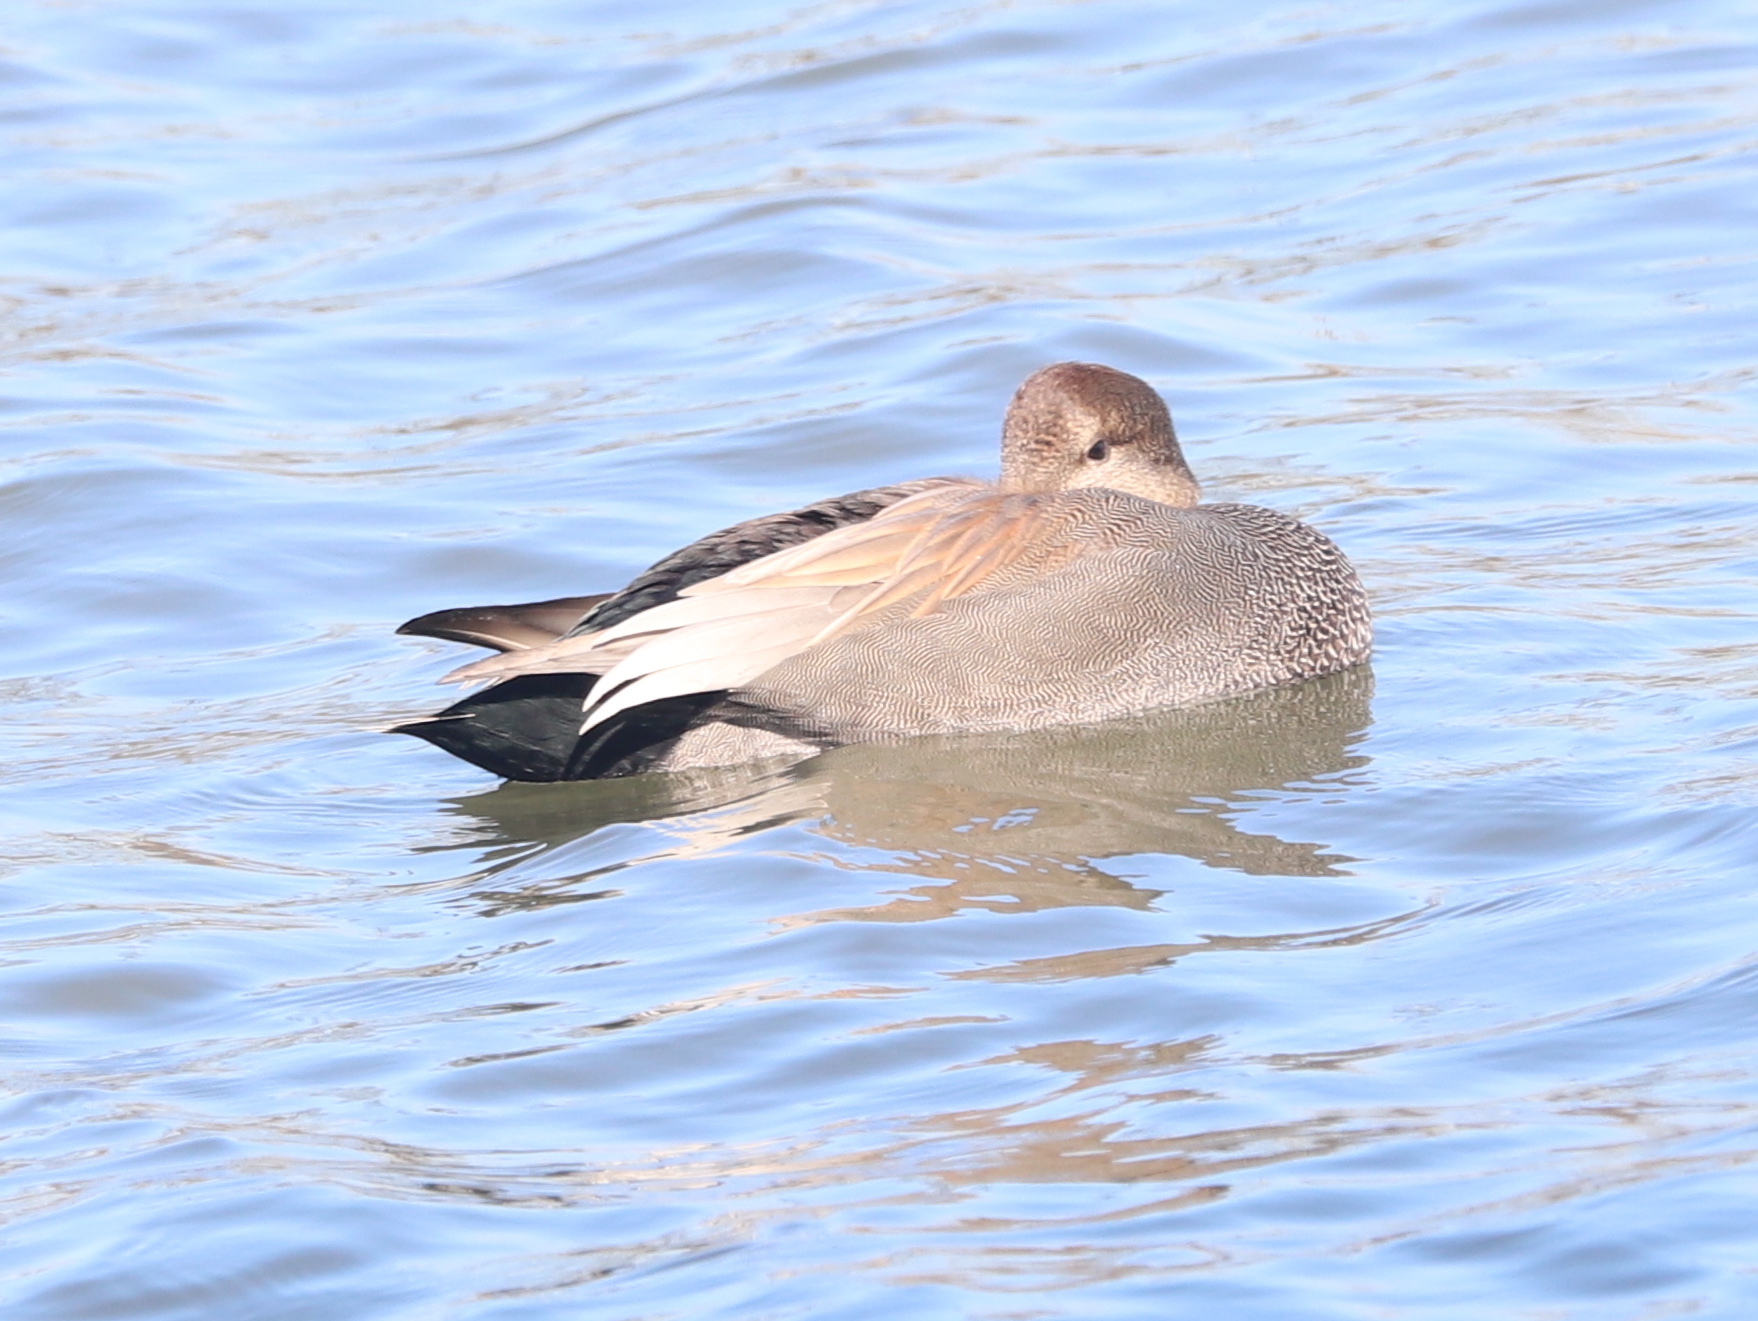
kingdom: Animalia
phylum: Chordata
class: Aves
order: Anseriformes
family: Anatidae
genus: Mareca
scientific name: Mareca strepera
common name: Gadwall
